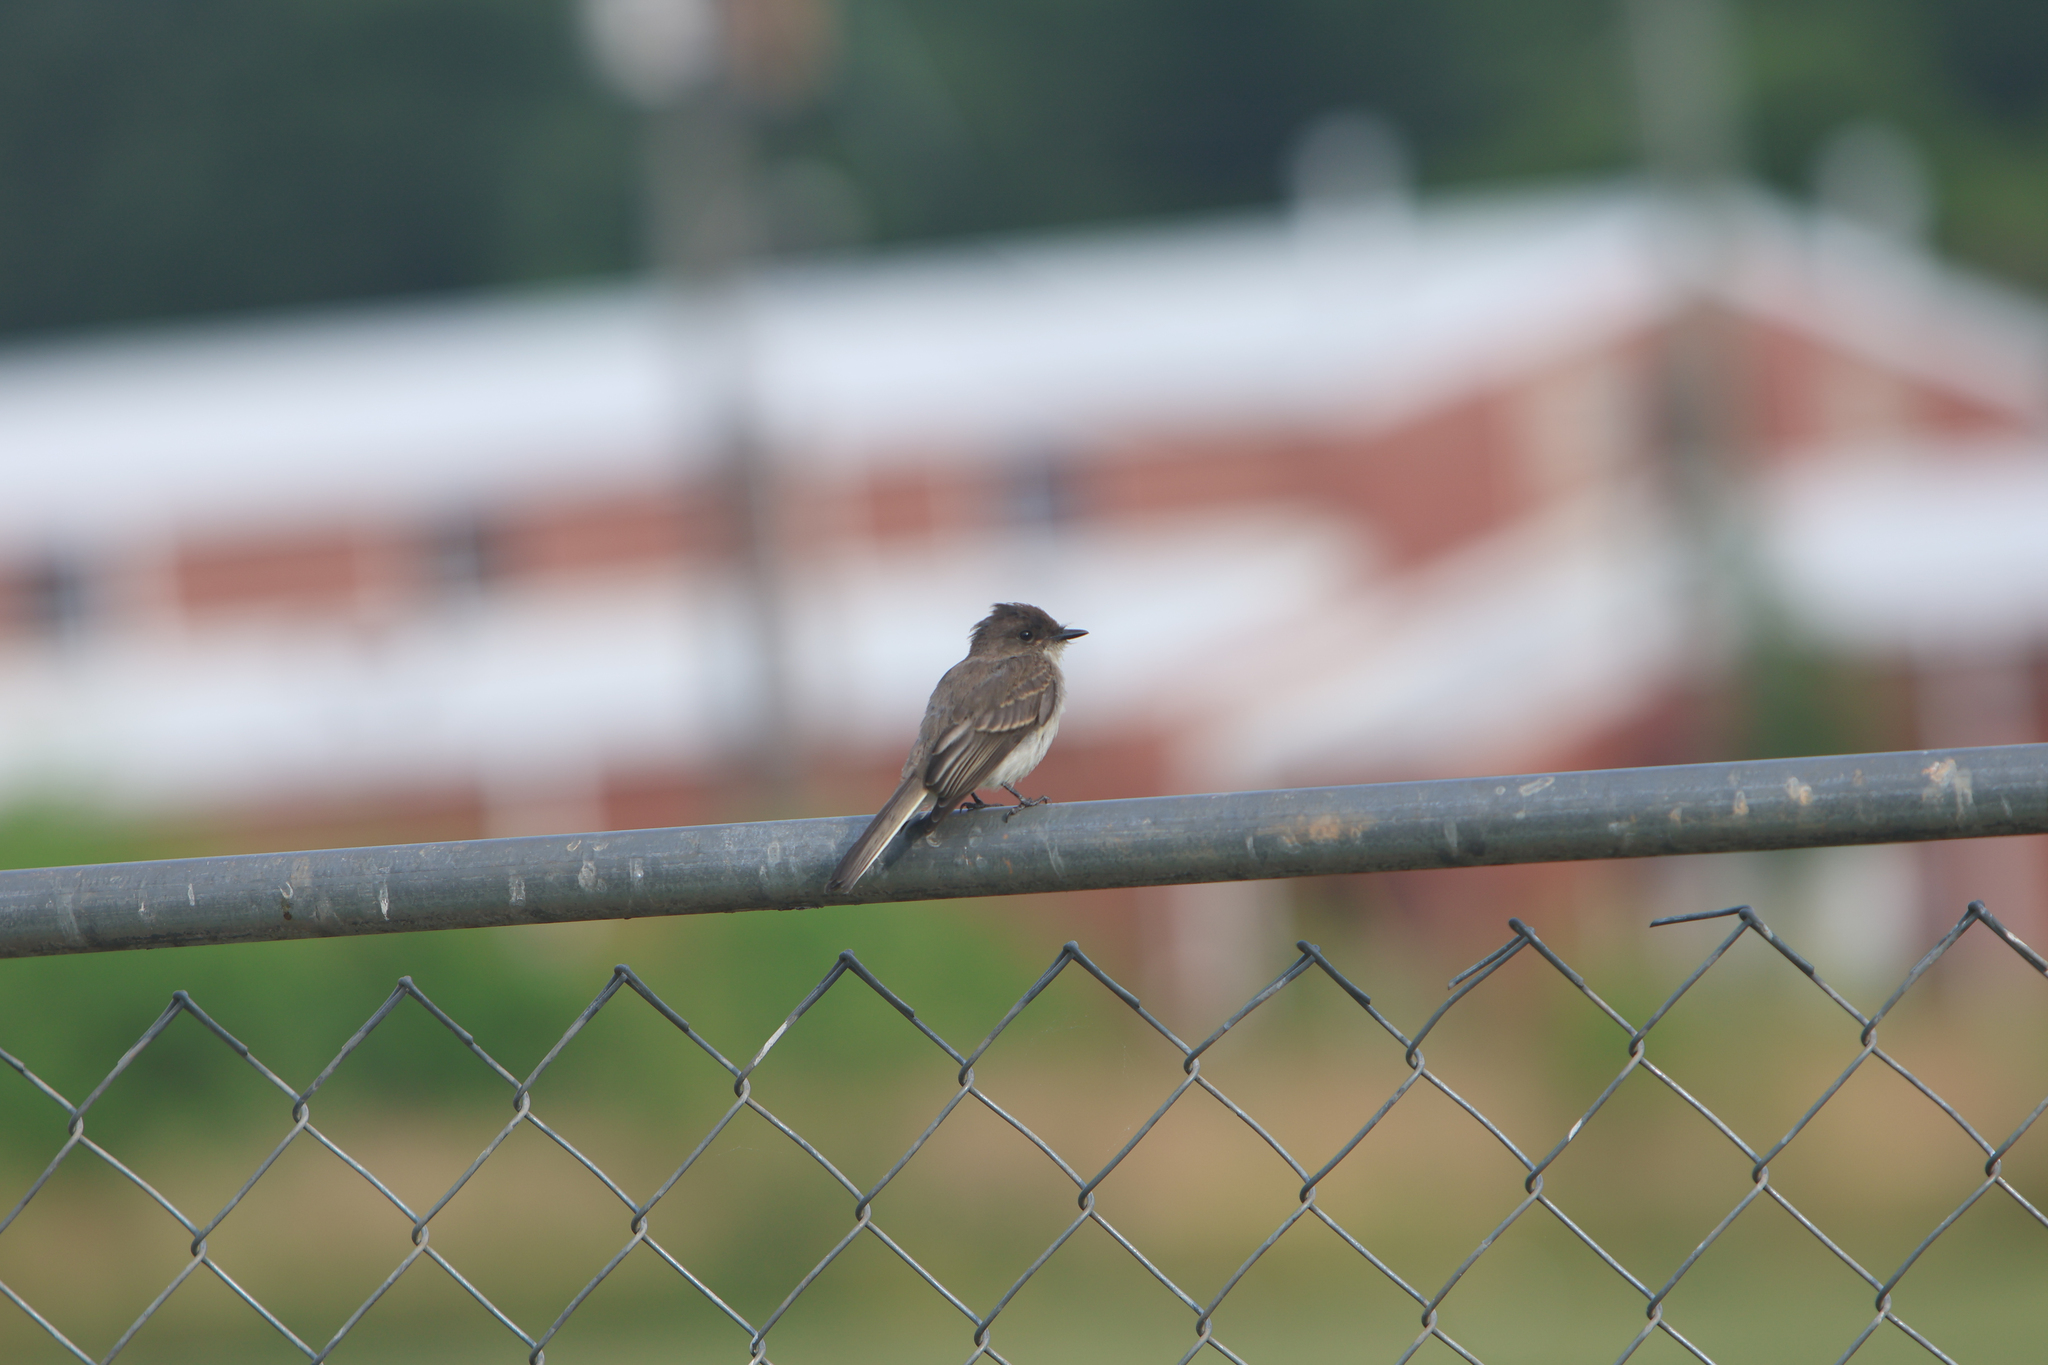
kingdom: Animalia
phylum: Chordata
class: Aves
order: Passeriformes
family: Tyrannidae
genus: Sayornis
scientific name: Sayornis phoebe
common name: Eastern phoebe
